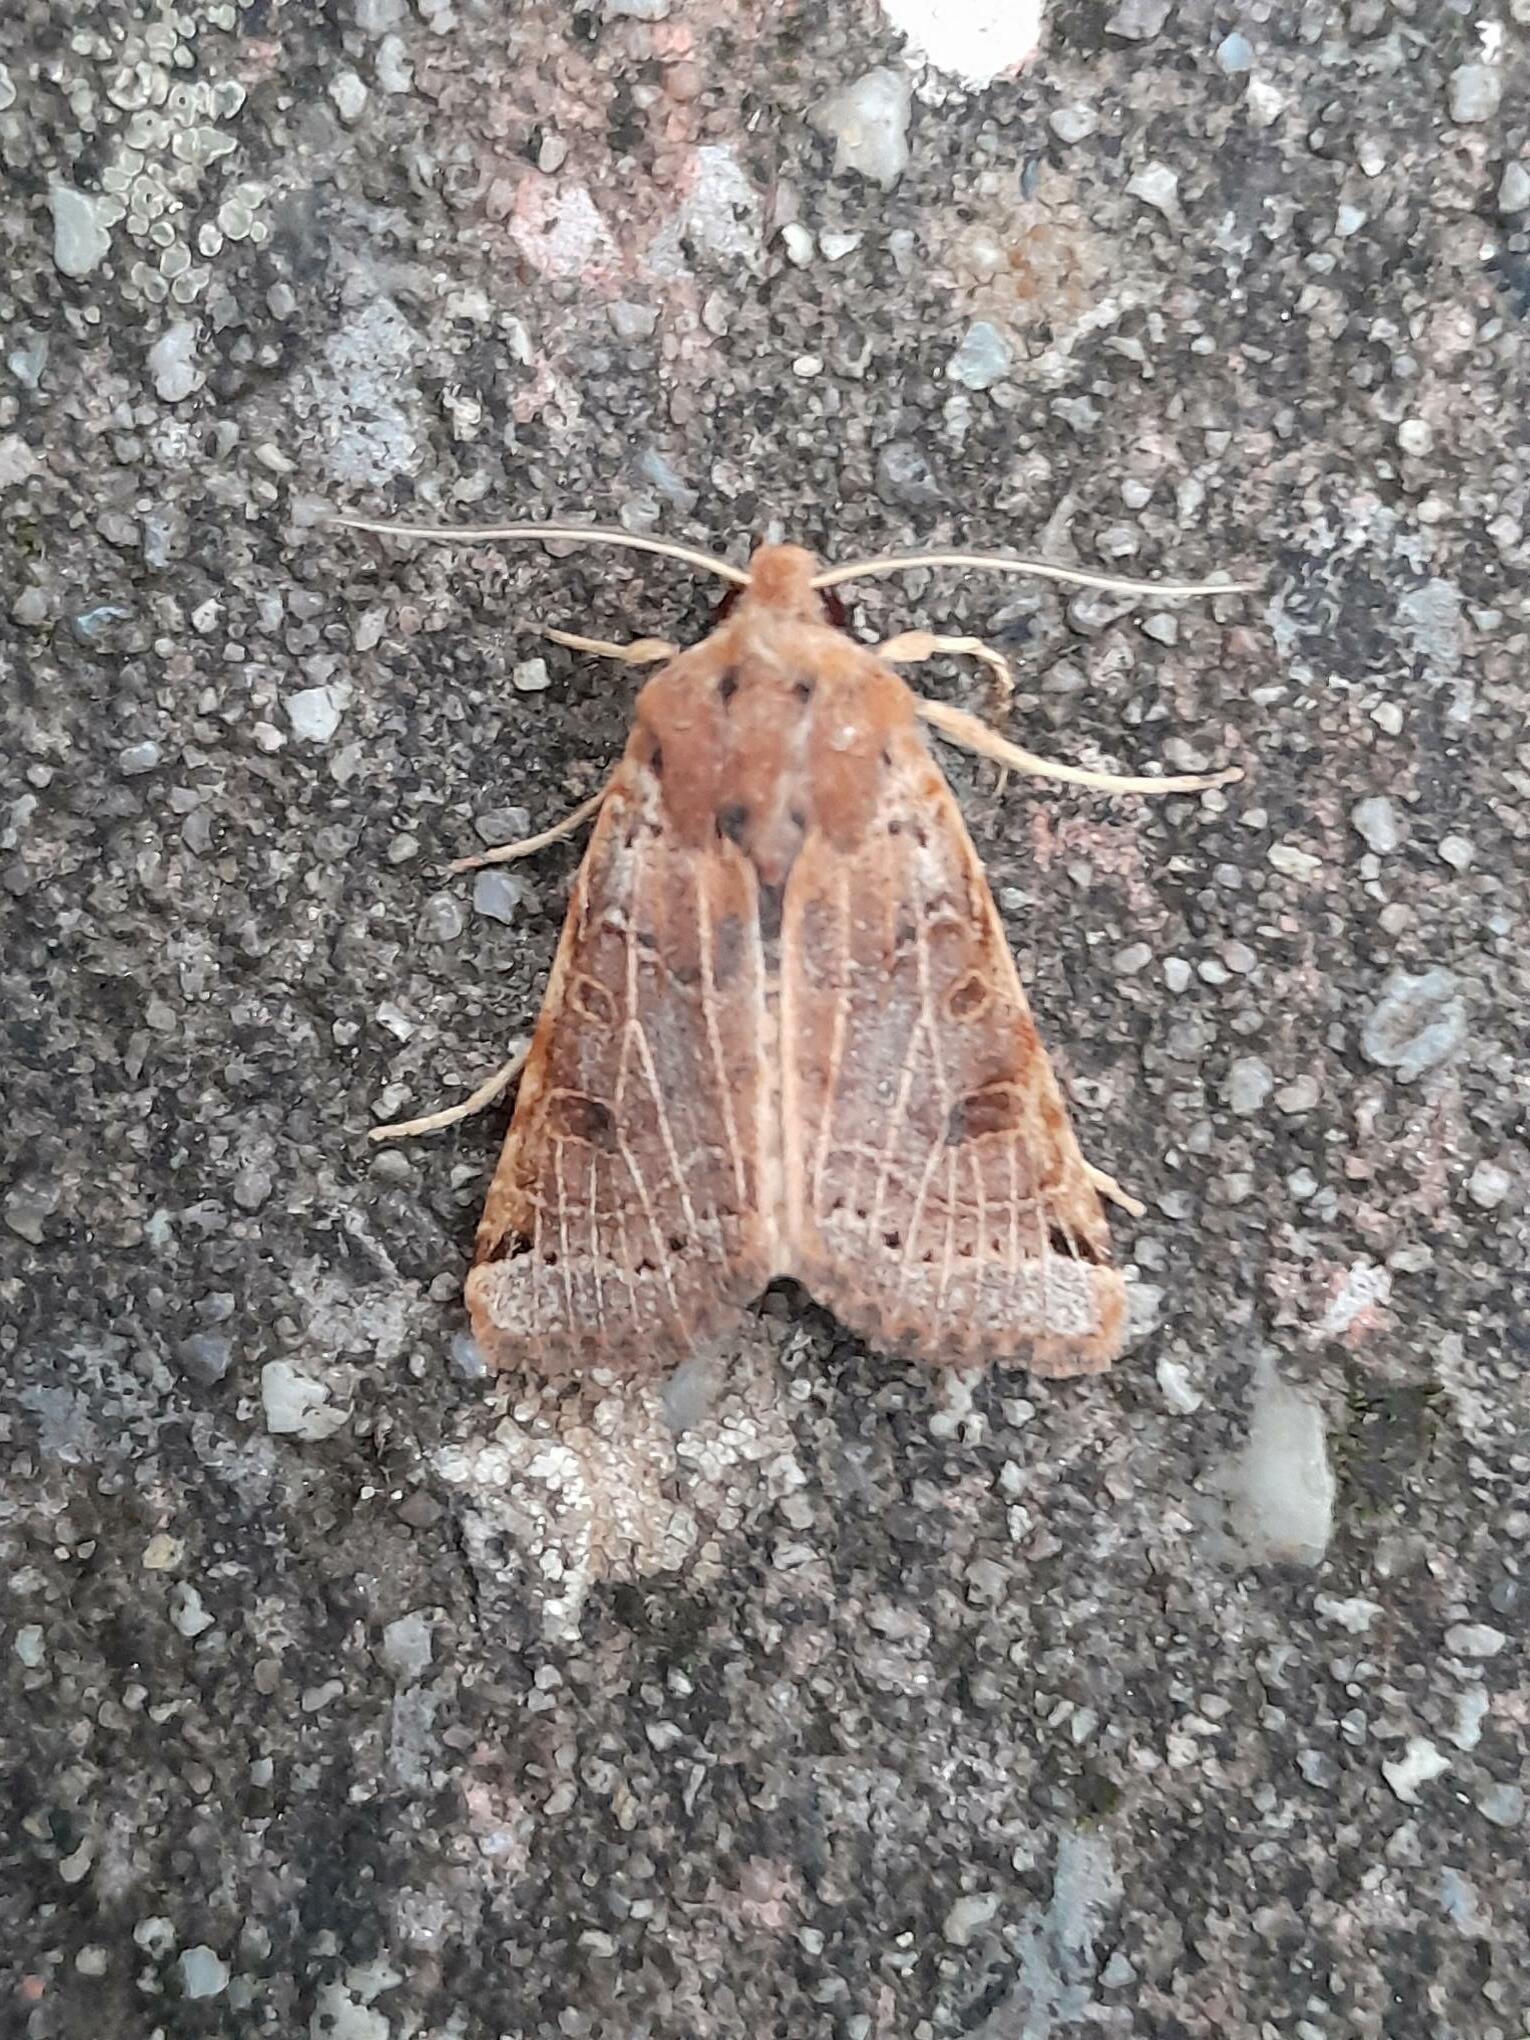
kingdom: Animalia
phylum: Arthropoda
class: Insecta
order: Lepidoptera
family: Noctuidae
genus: Agrochola
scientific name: Agrochola lunosa
